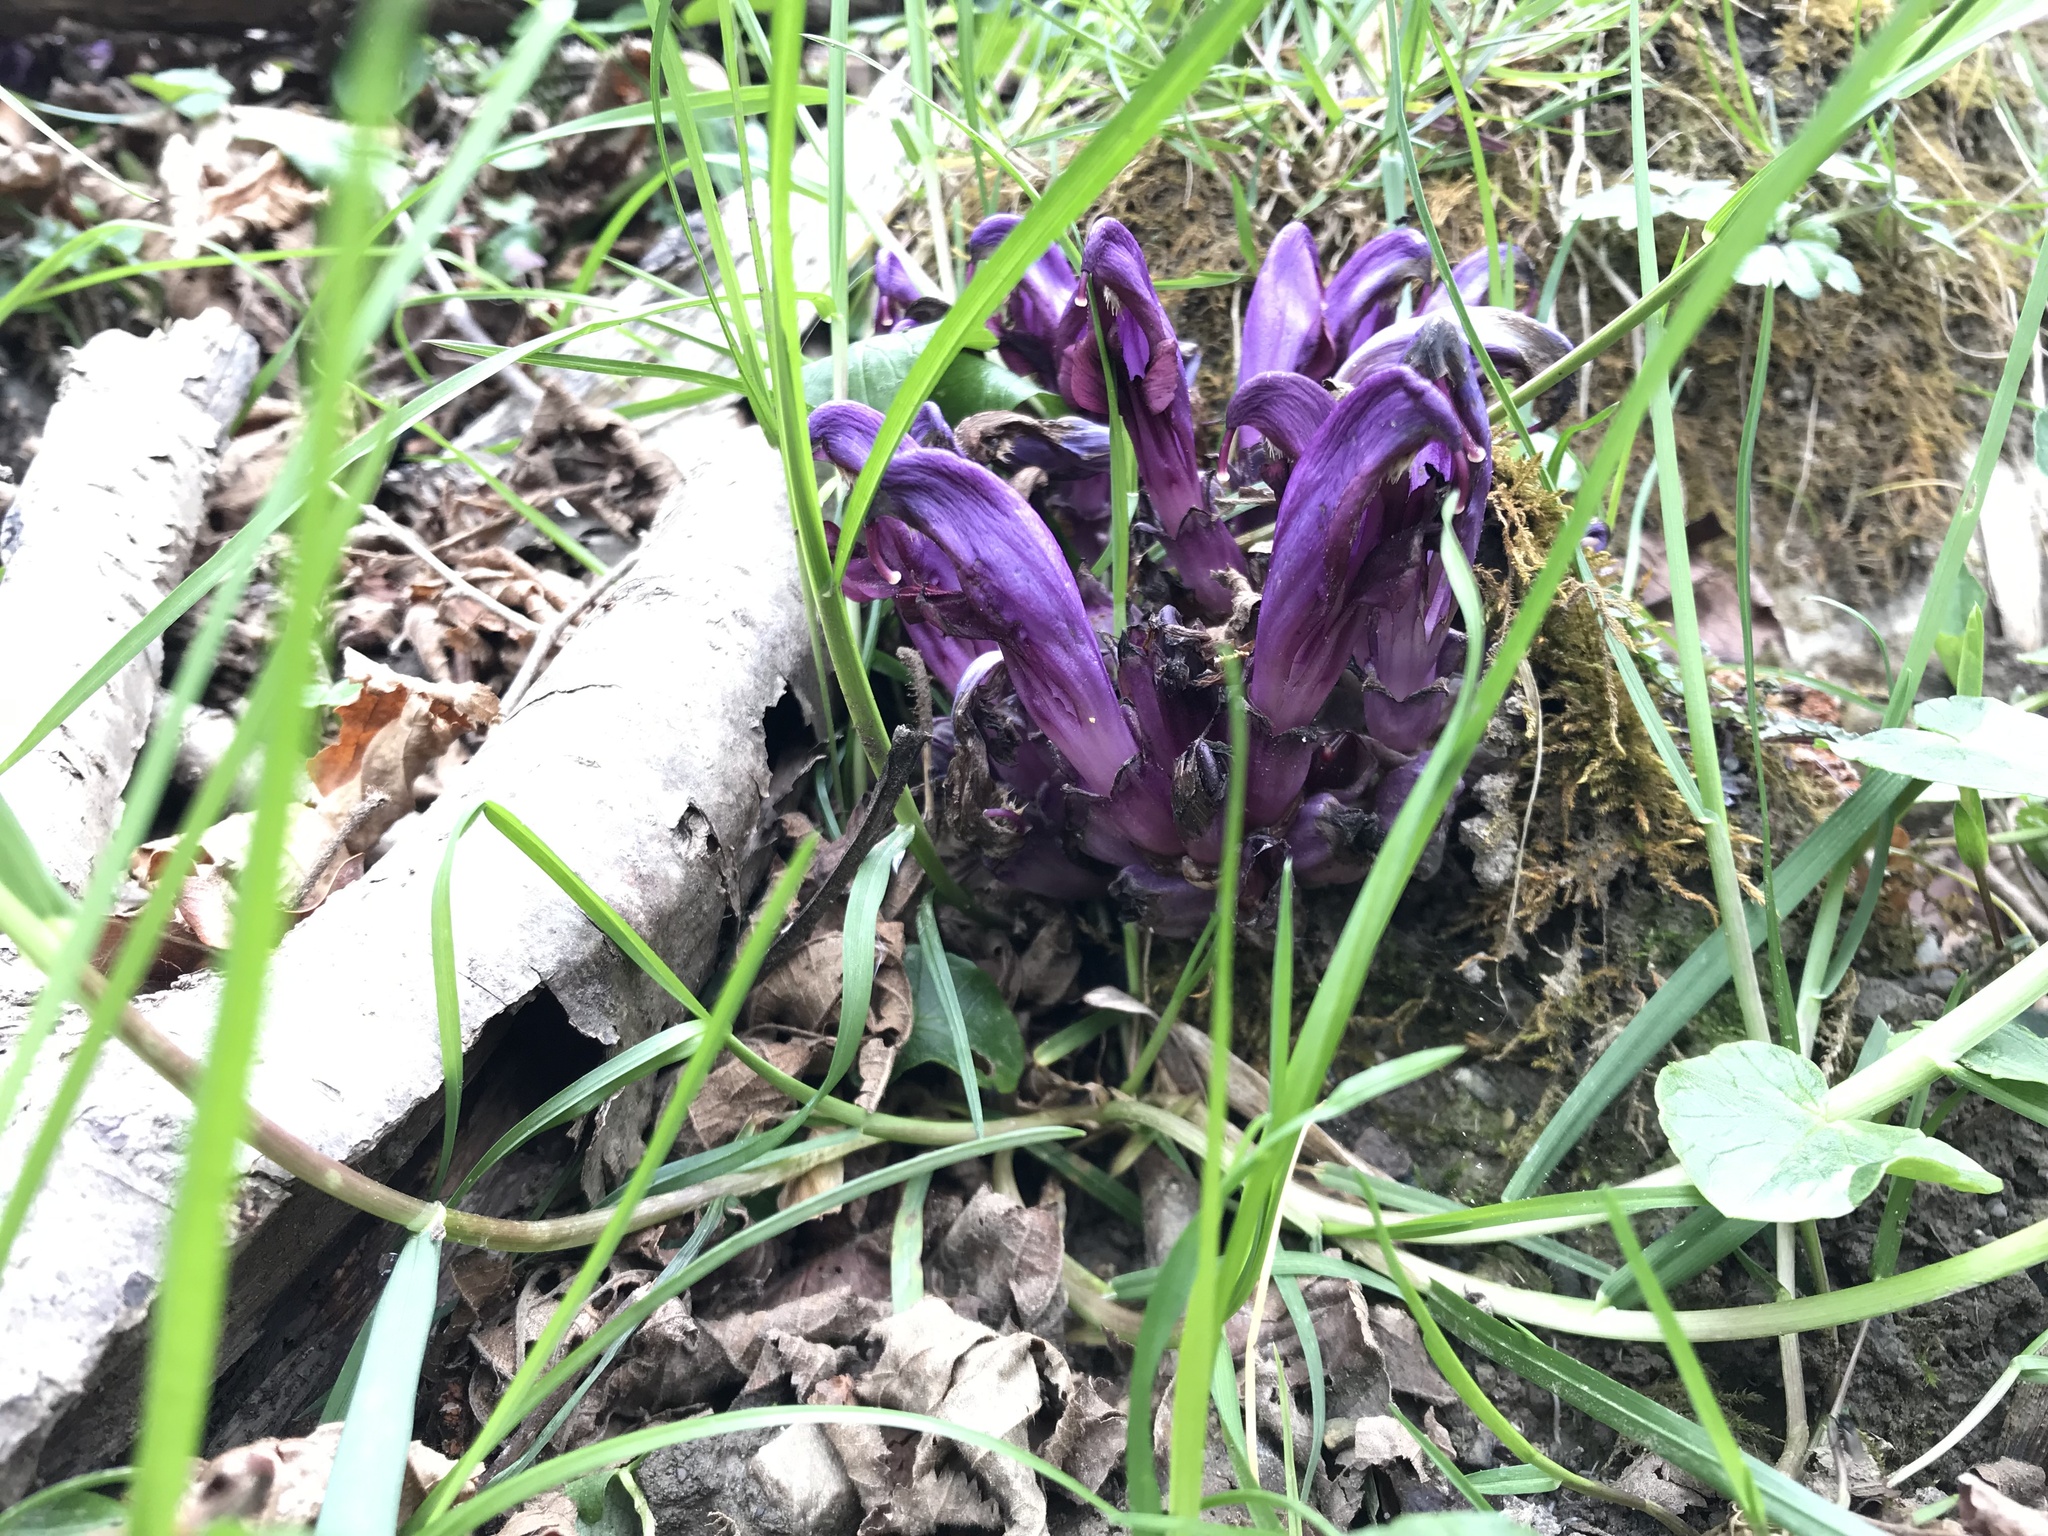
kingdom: Plantae
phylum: Tracheophyta
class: Magnoliopsida
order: Lamiales
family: Orobanchaceae
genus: Lathraea
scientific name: Lathraea clandestina
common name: Purple toothwort
